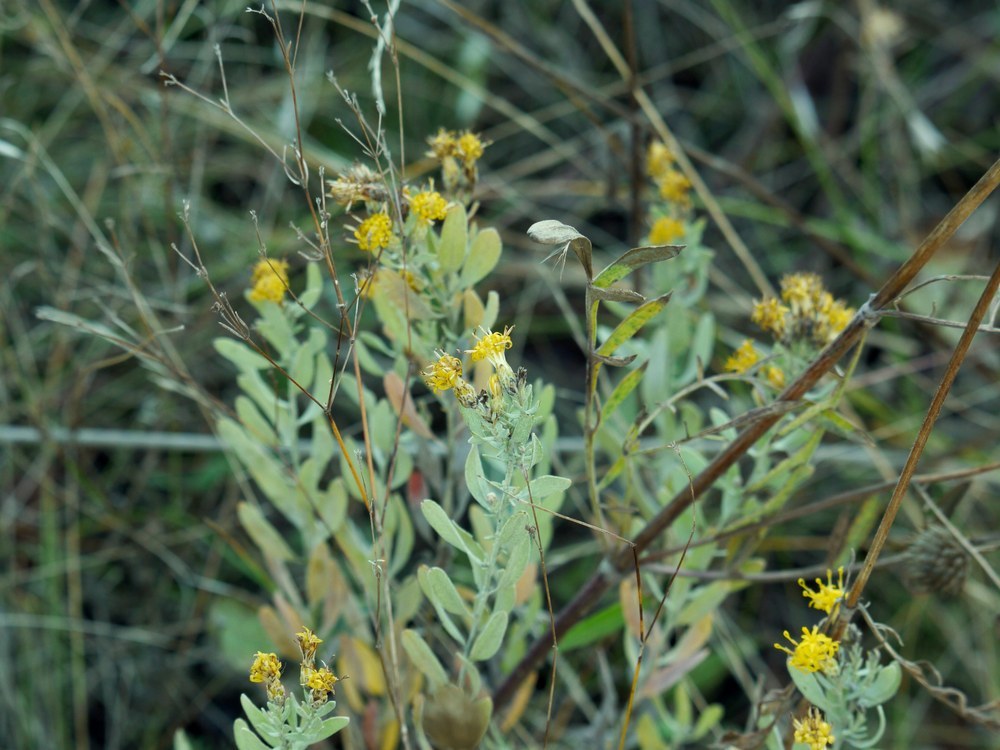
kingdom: Plantae
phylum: Tracheophyta
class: Magnoliopsida
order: Asterales
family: Asteraceae
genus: Galatella
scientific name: Galatella villosa
